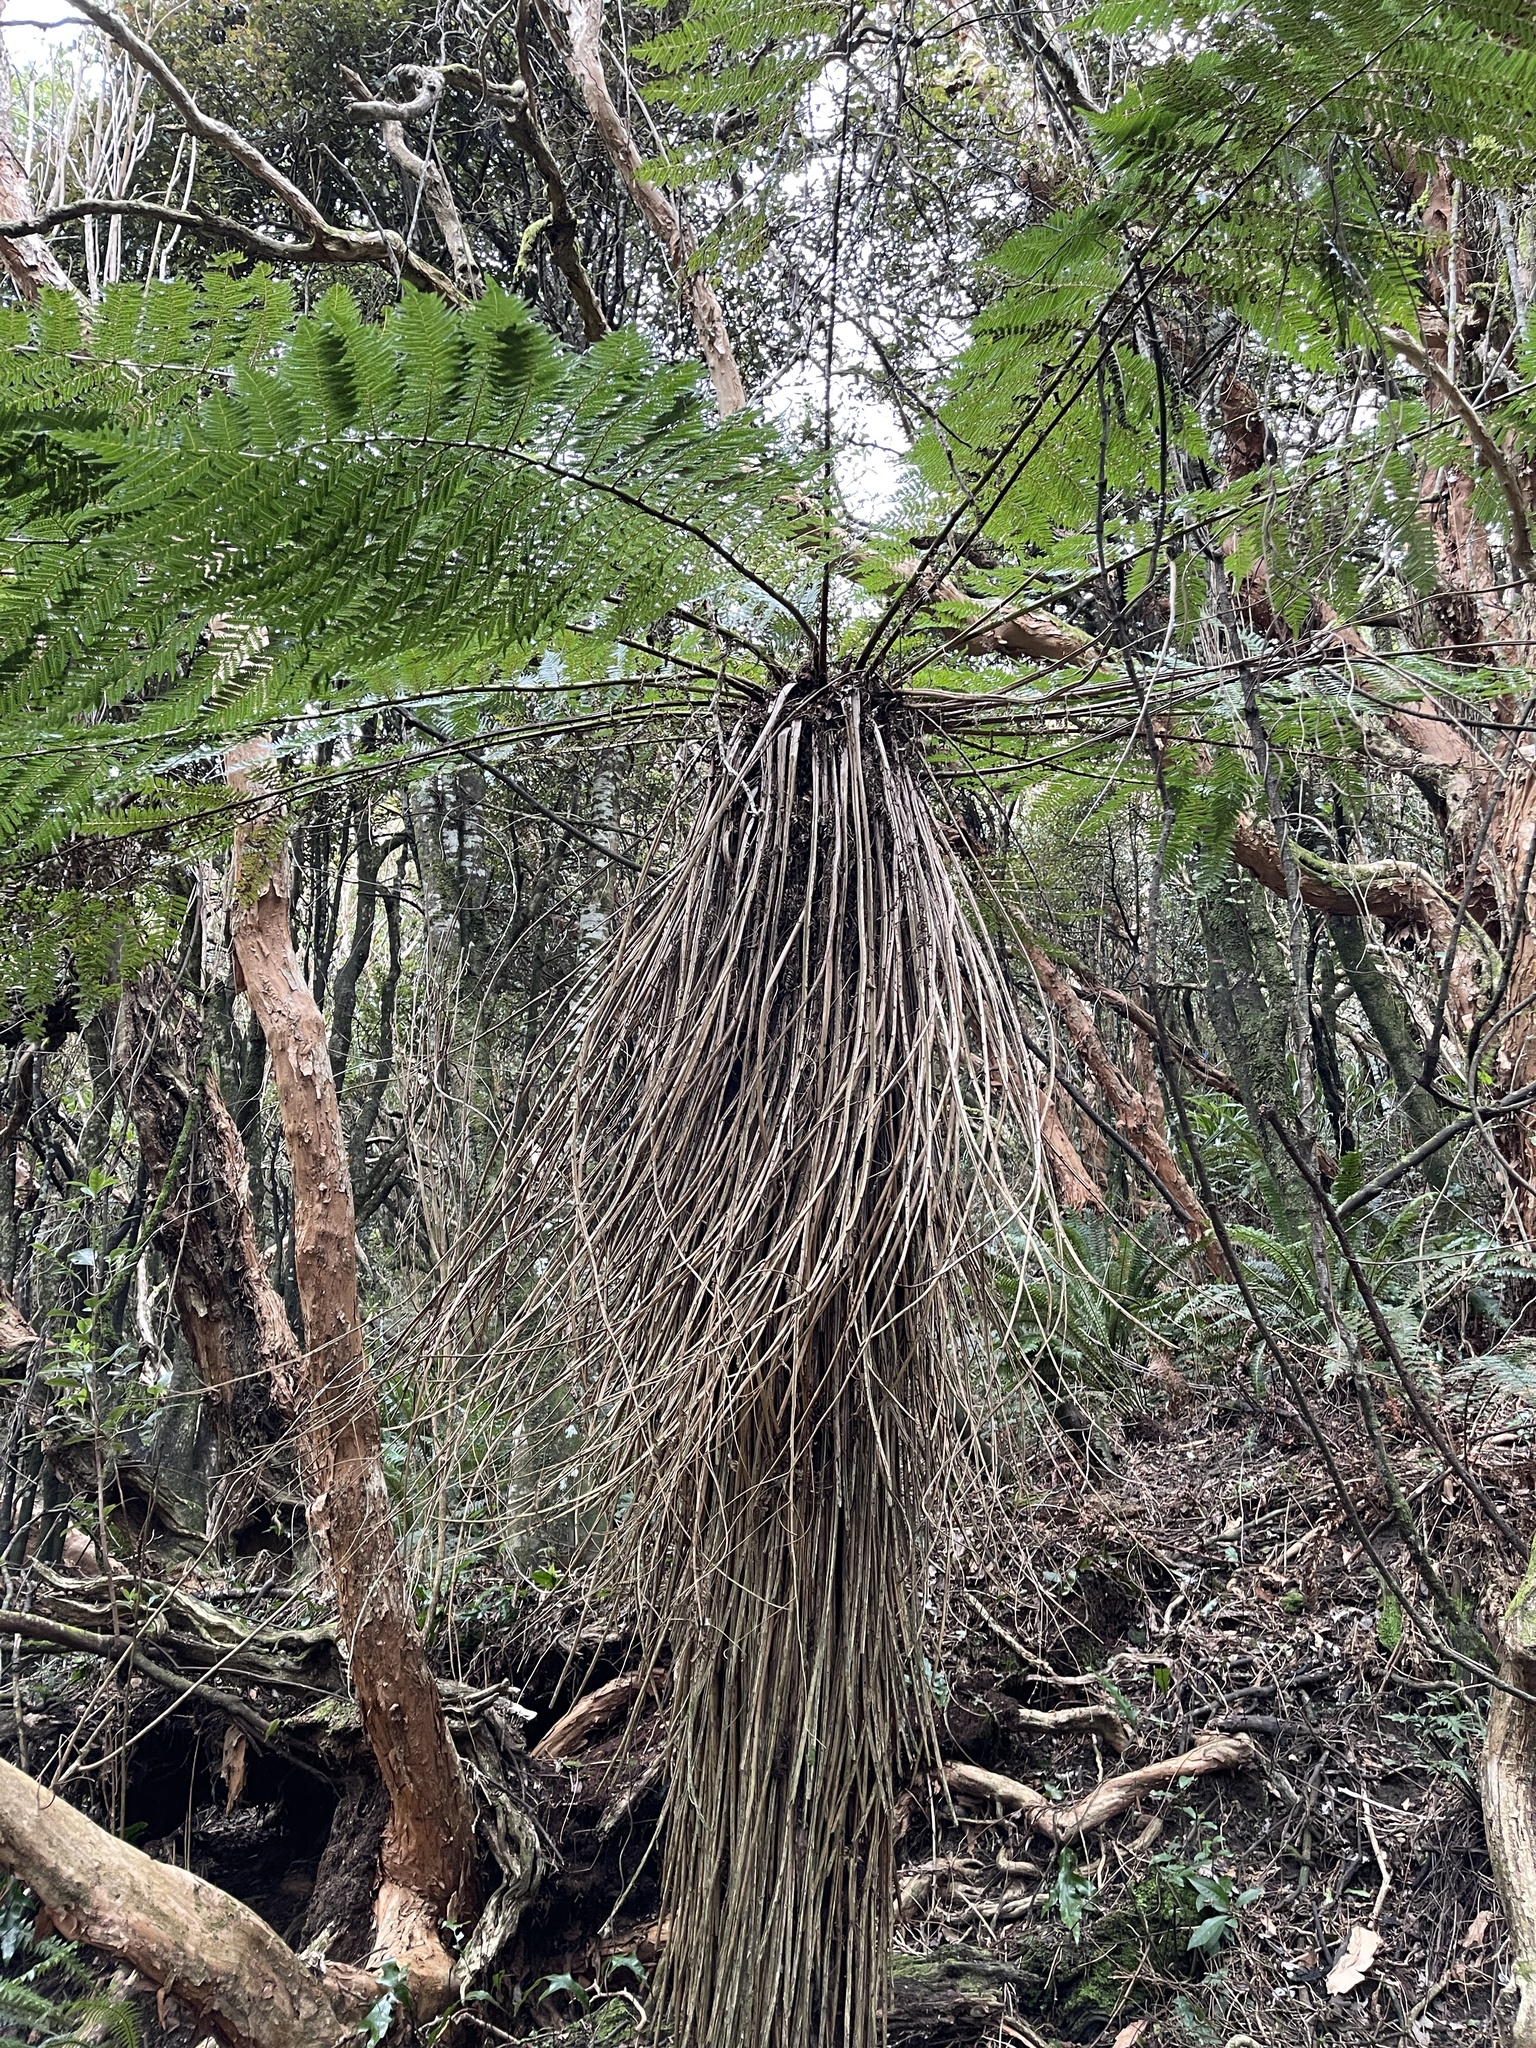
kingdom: Plantae
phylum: Tracheophyta
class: Polypodiopsida
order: Cyatheales
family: Cyatheaceae
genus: Alsophila
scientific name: Alsophila smithii
